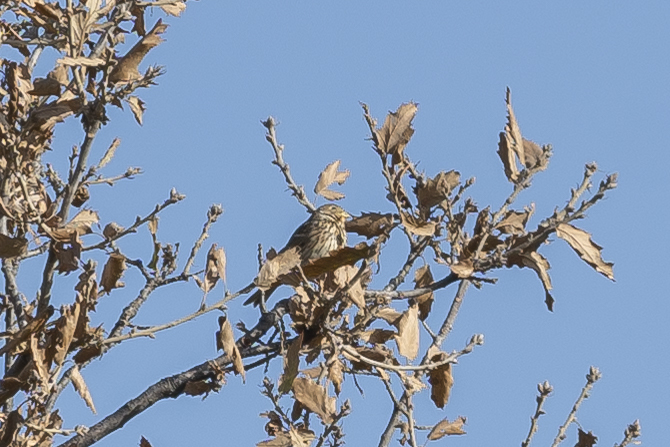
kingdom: Animalia
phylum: Chordata
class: Aves
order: Passeriformes
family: Emberizidae
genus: Emberiza
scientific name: Emberiza calandra
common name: Corn bunting
